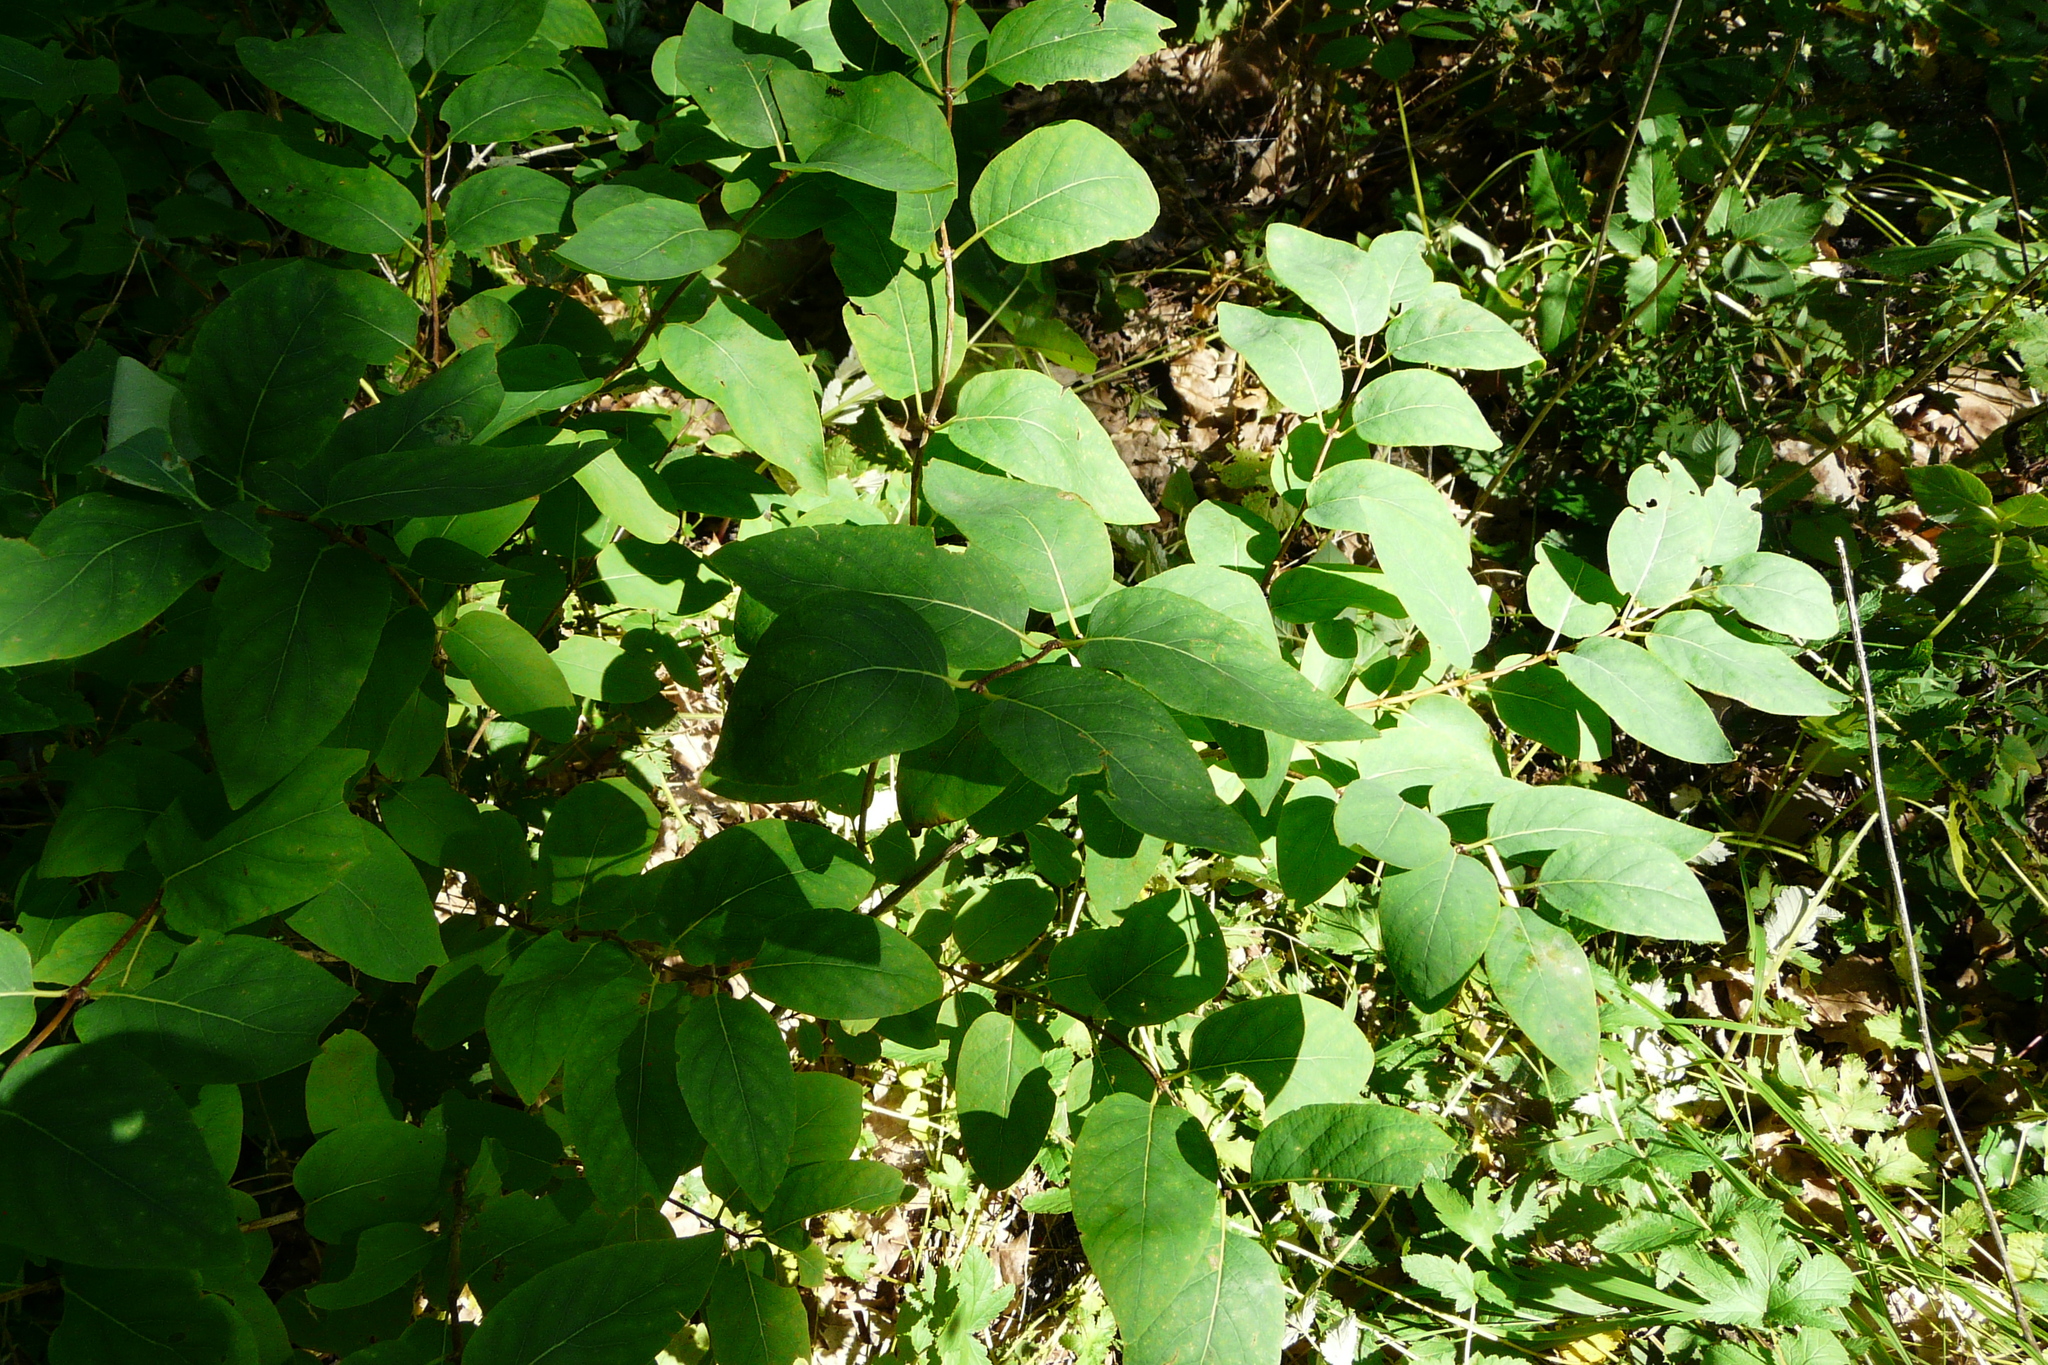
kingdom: Plantae
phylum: Tracheophyta
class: Magnoliopsida
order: Dipsacales
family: Caprifoliaceae
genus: Lonicera
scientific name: Lonicera tatarica
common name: Tatarian honeysuckle
